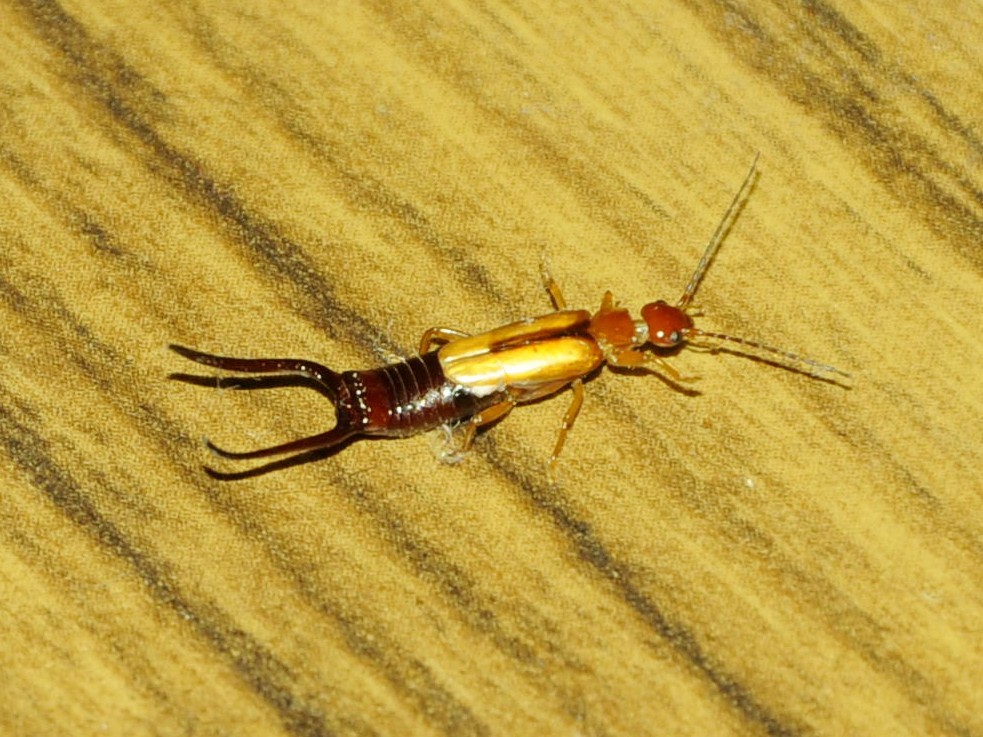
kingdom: Animalia
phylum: Arthropoda
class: Insecta
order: Dermaptera
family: Forficulidae
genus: Elaunon
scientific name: Elaunon bipartitus
